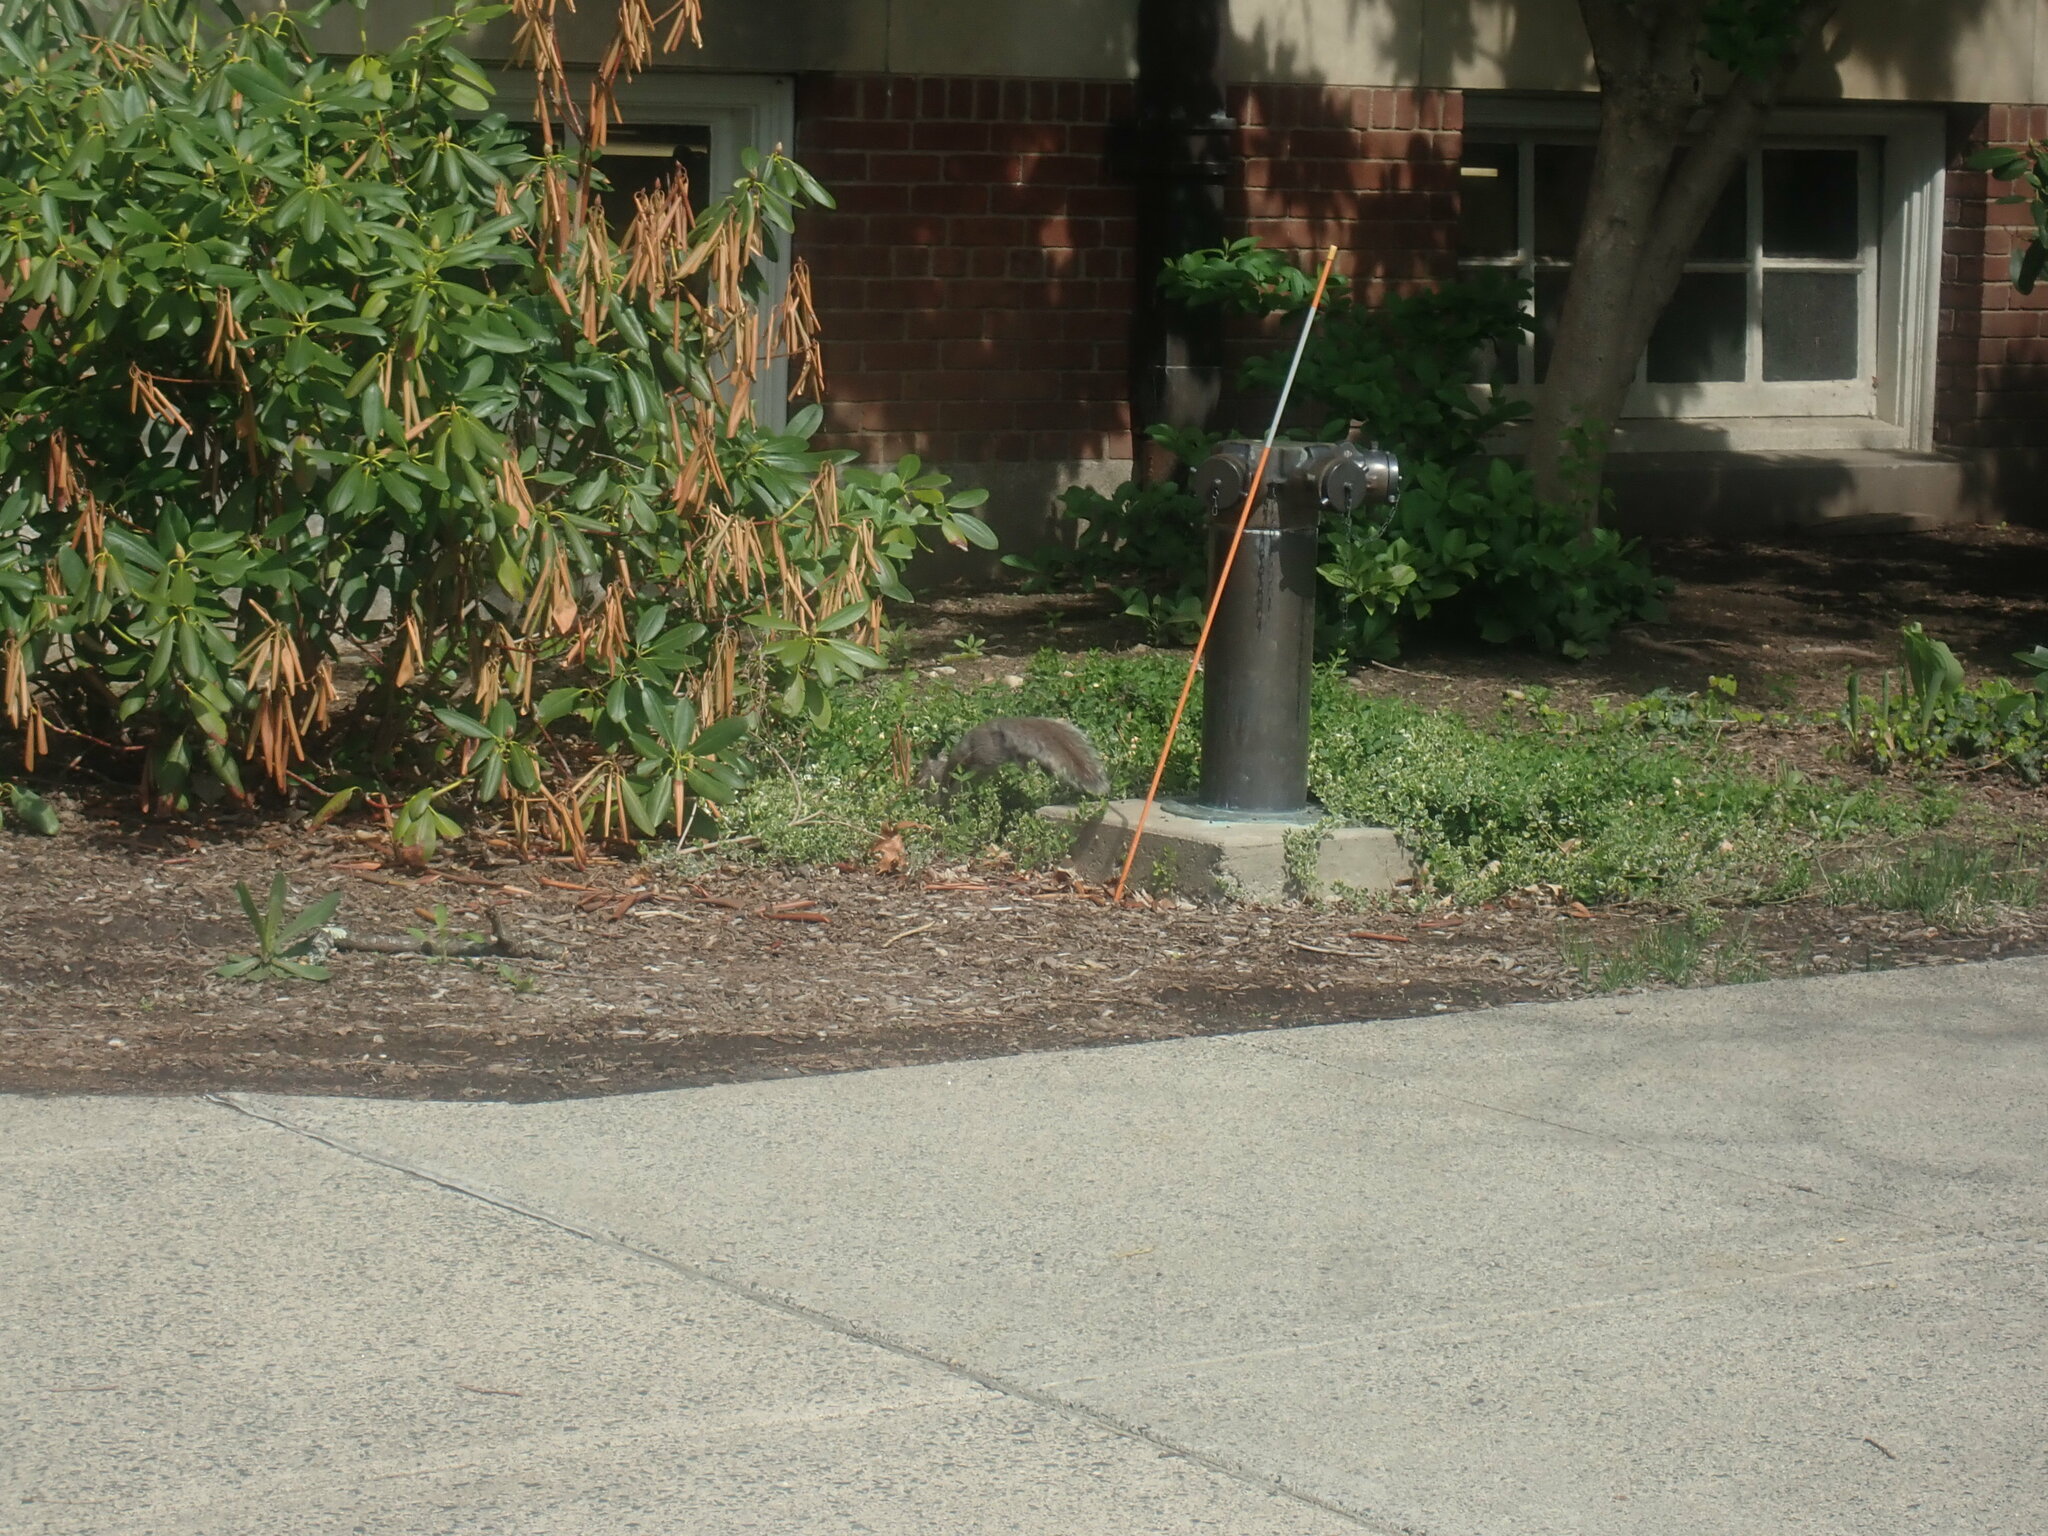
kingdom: Animalia
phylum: Chordata
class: Mammalia
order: Rodentia
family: Sciuridae
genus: Sciurus
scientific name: Sciurus carolinensis
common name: Eastern gray squirrel
